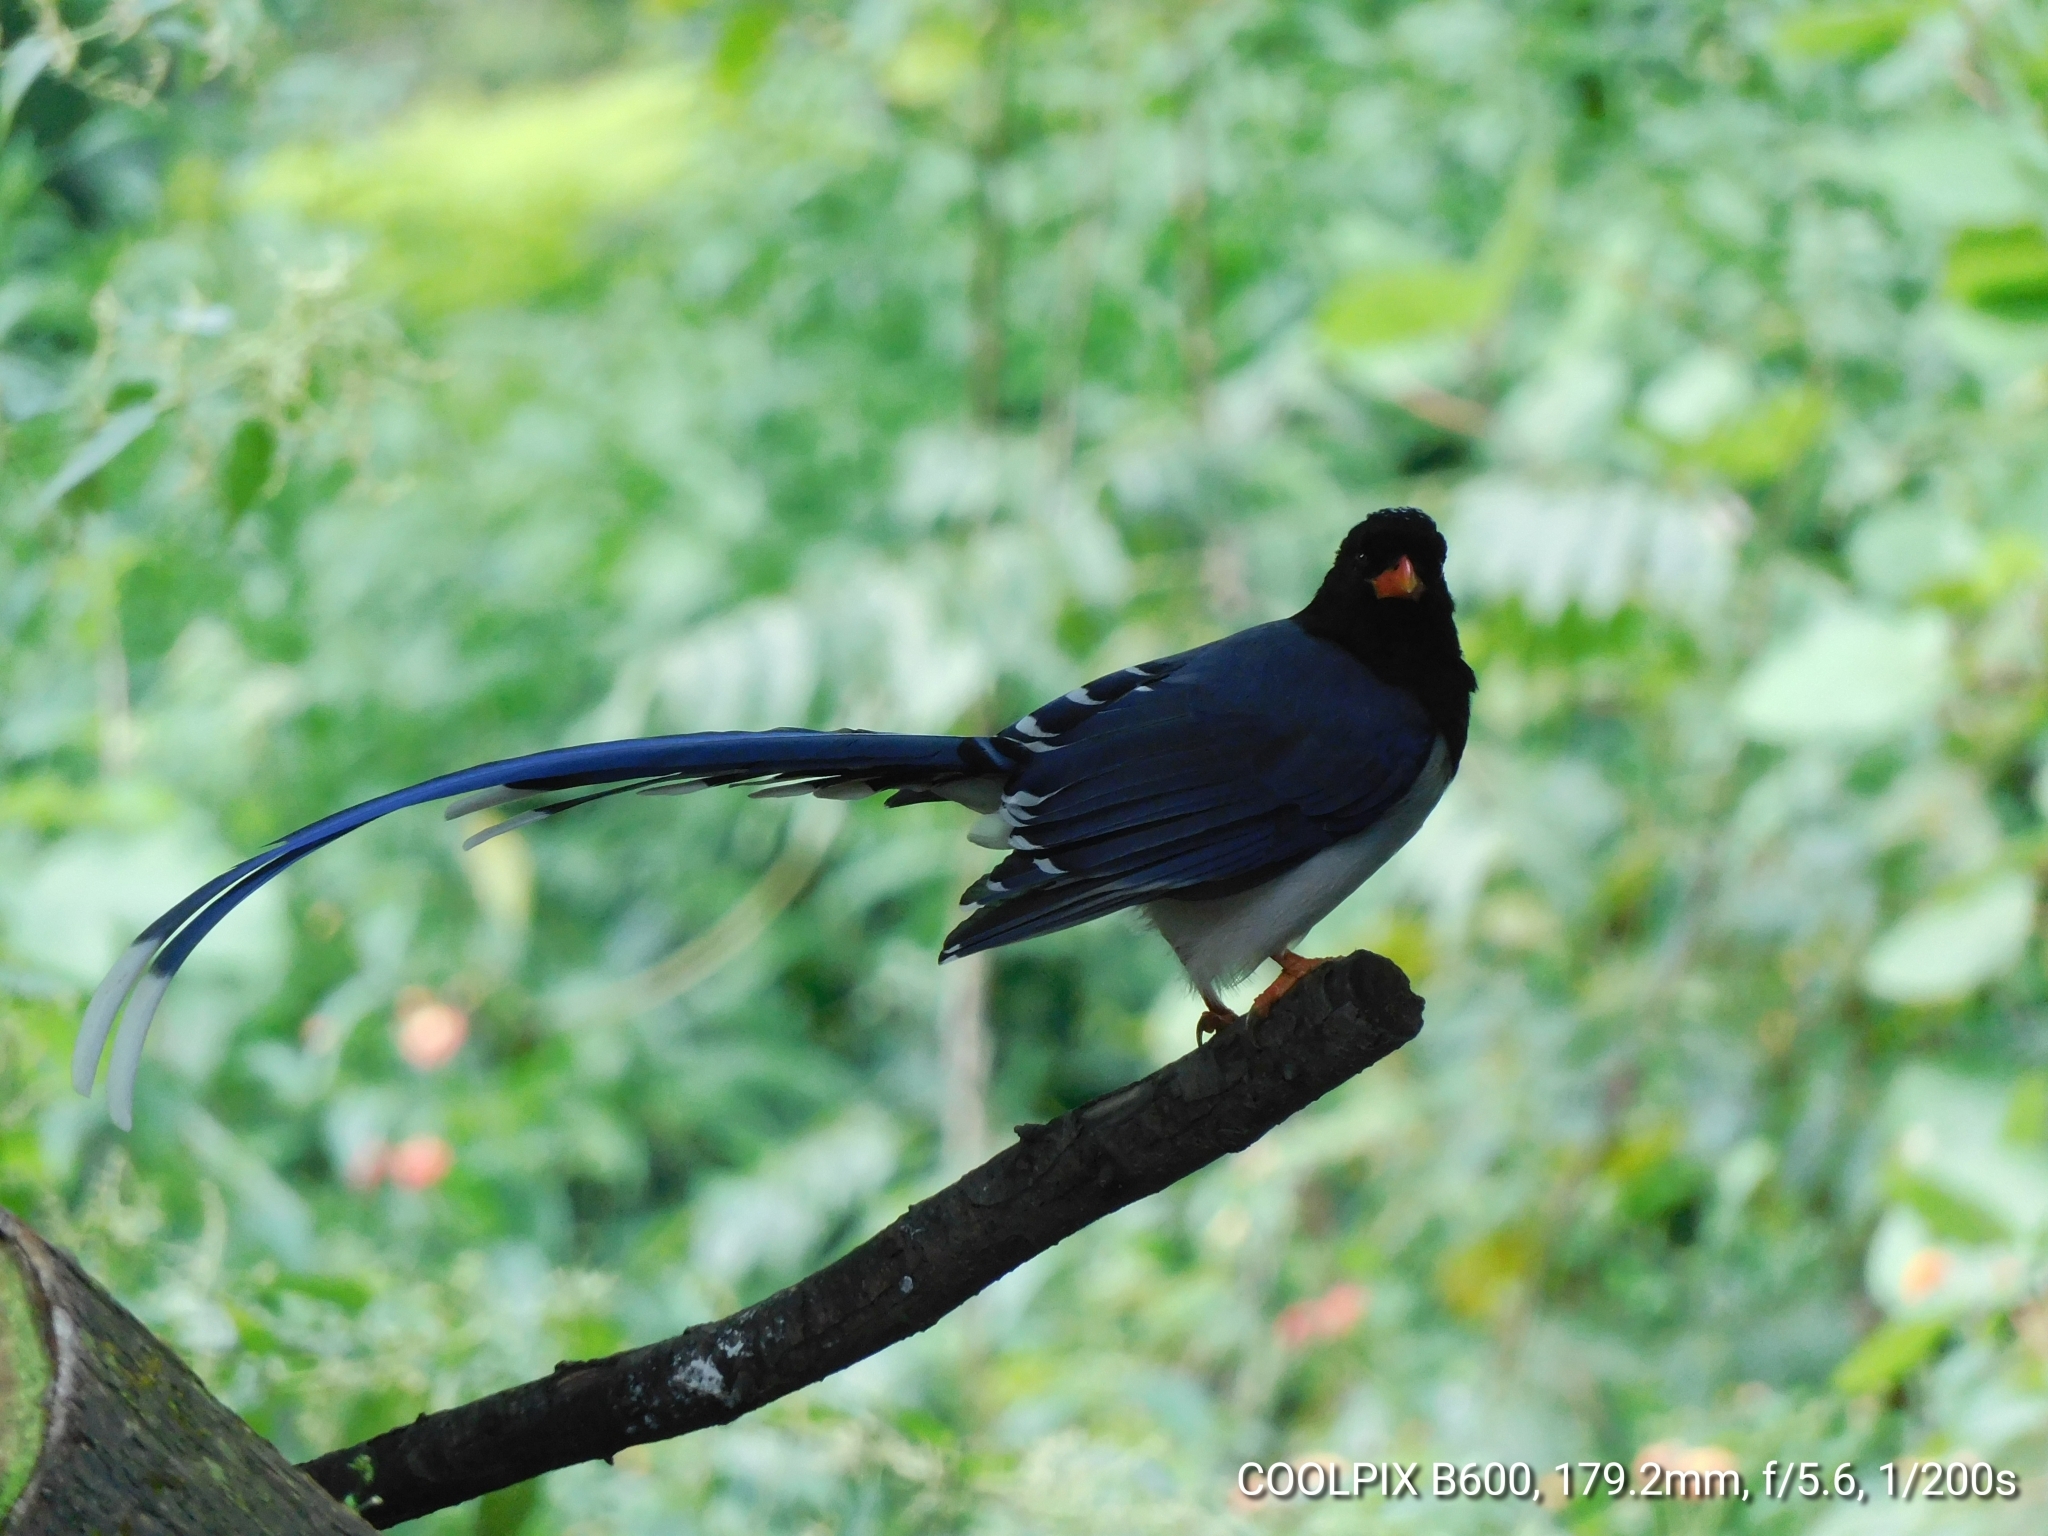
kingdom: Animalia
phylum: Chordata
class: Aves
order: Passeriformes
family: Corvidae
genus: Urocissa
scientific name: Urocissa erythroryncha
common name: Red-billed blue magpie
